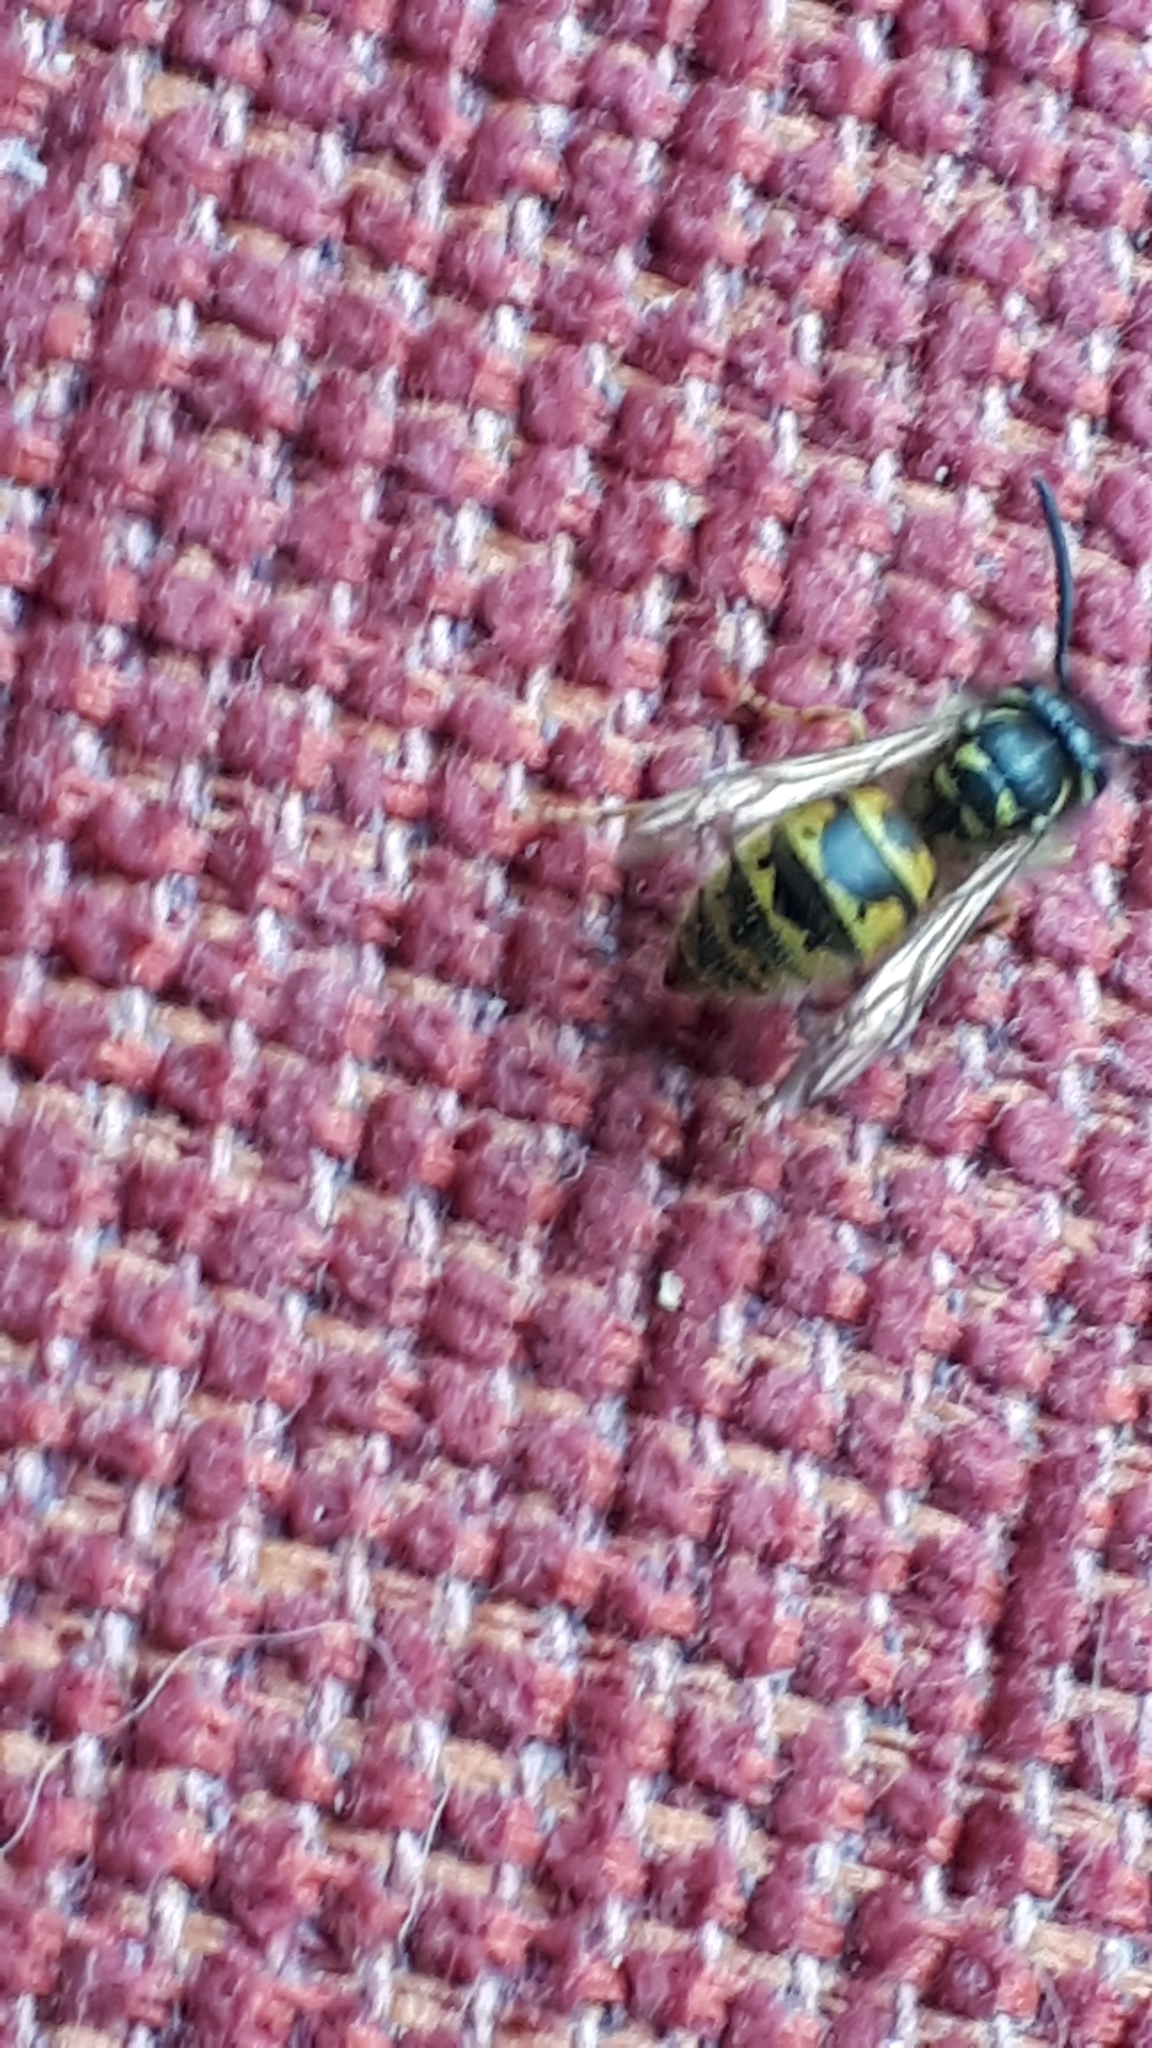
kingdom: Animalia
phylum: Arthropoda
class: Insecta
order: Hymenoptera
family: Vespidae
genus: Vespula
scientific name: Vespula vulgaris
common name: Common wasp
